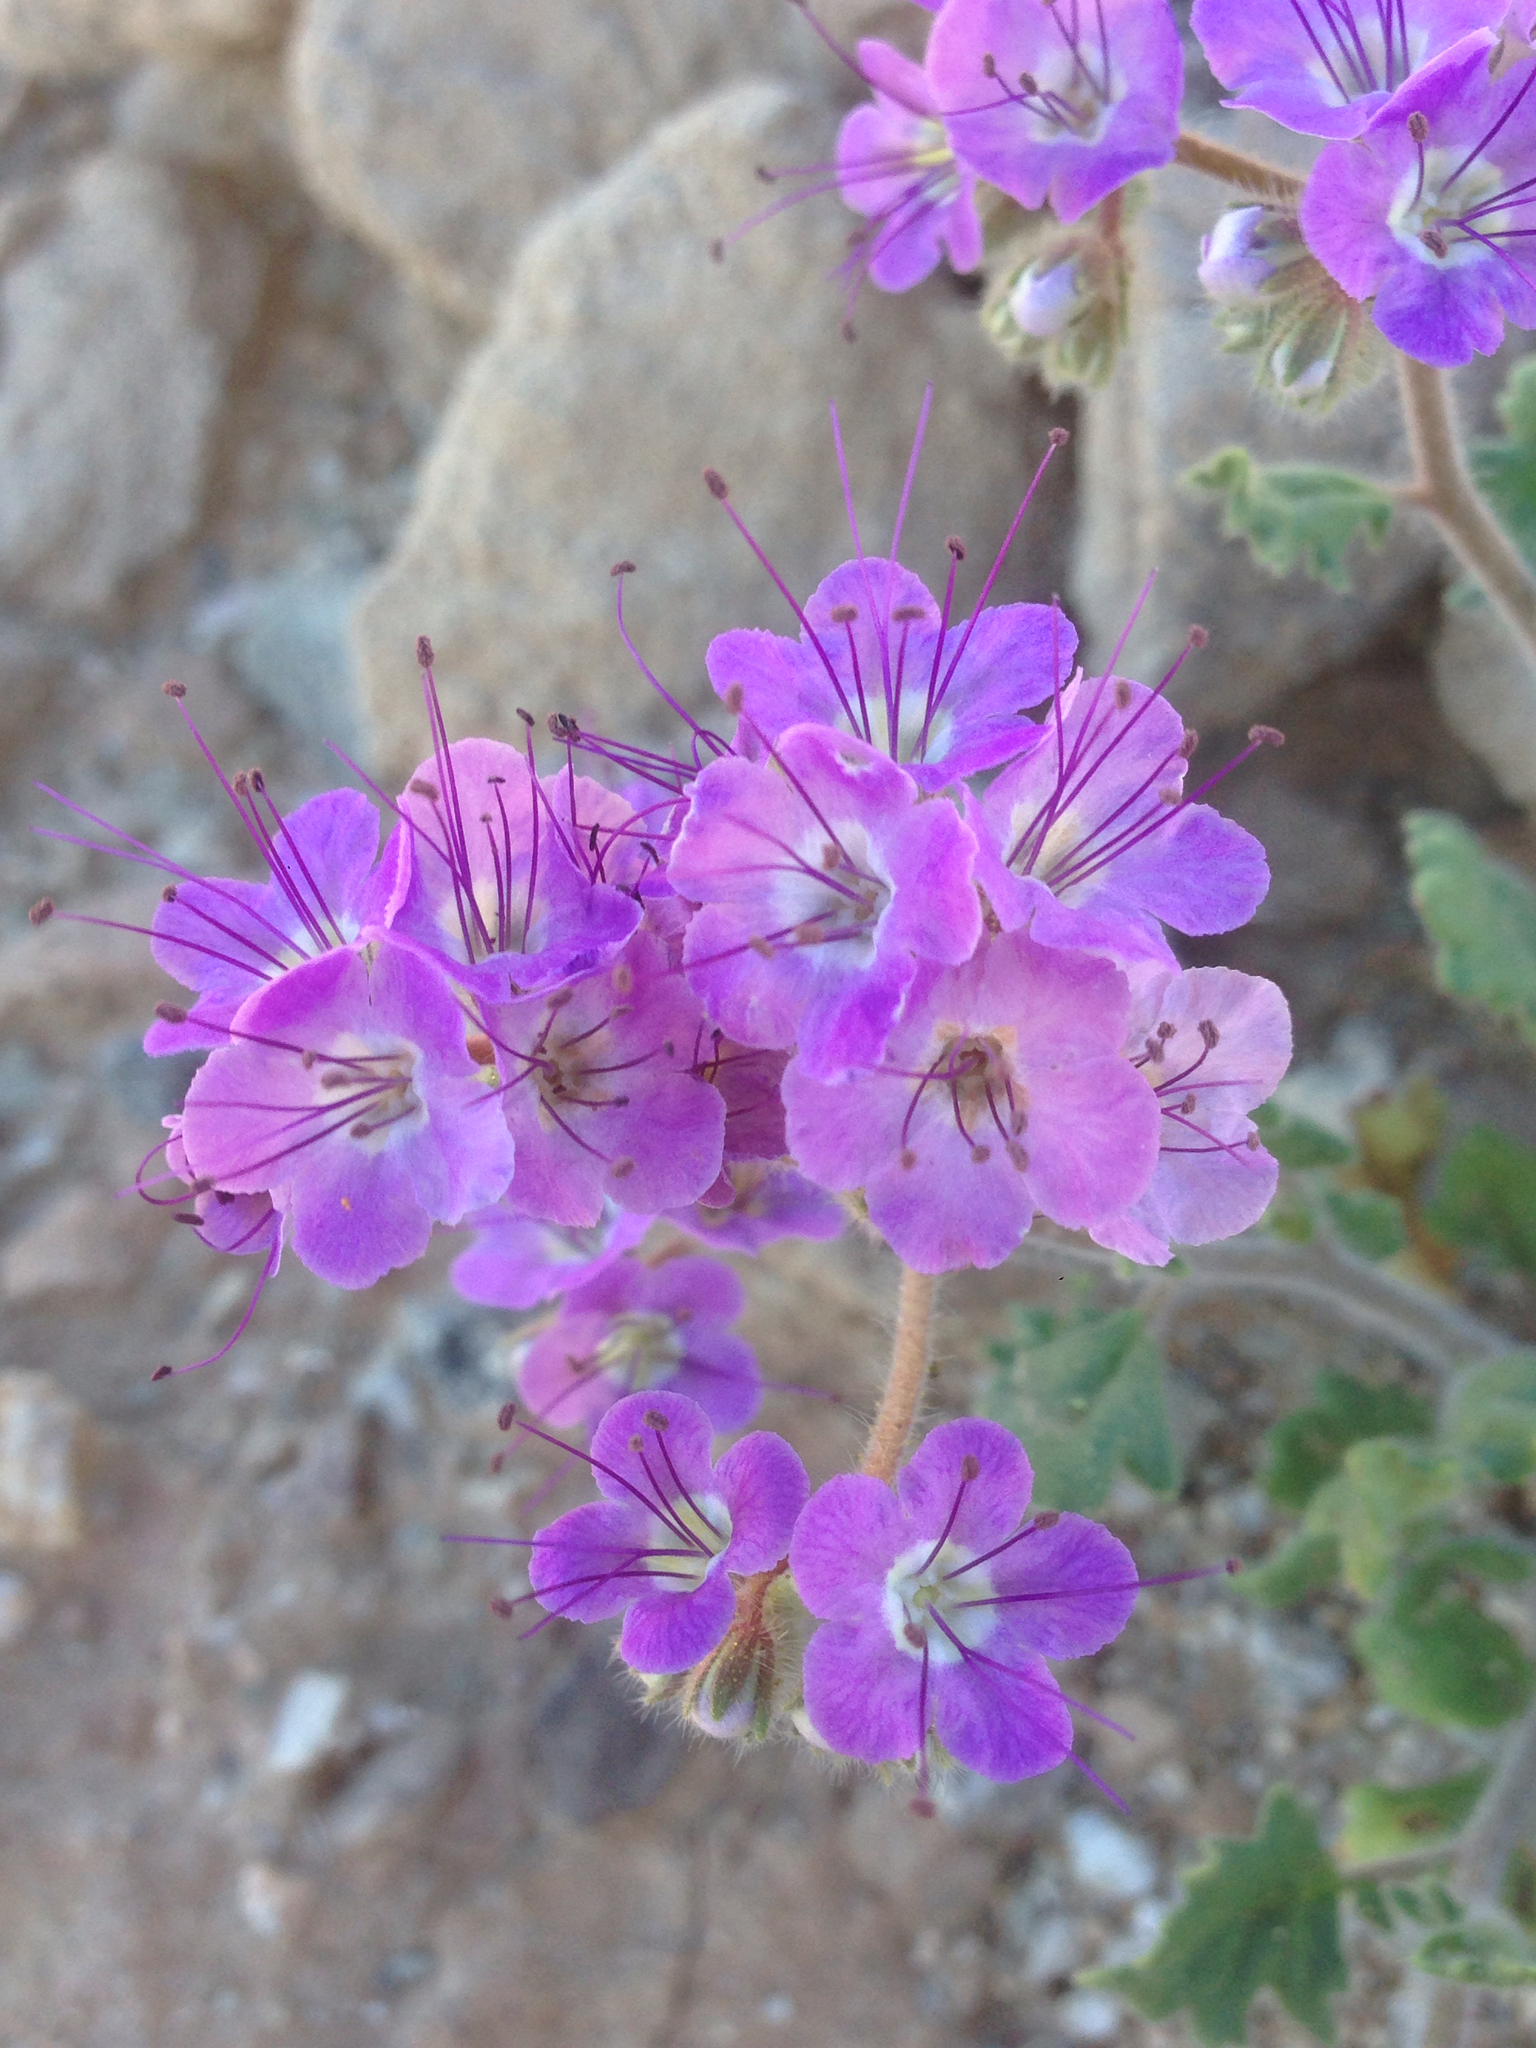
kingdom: Plantae
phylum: Tracheophyta
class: Magnoliopsida
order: Boraginales
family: Hydrophyllaceae
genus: Phacelia
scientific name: Phacelia crenulata
